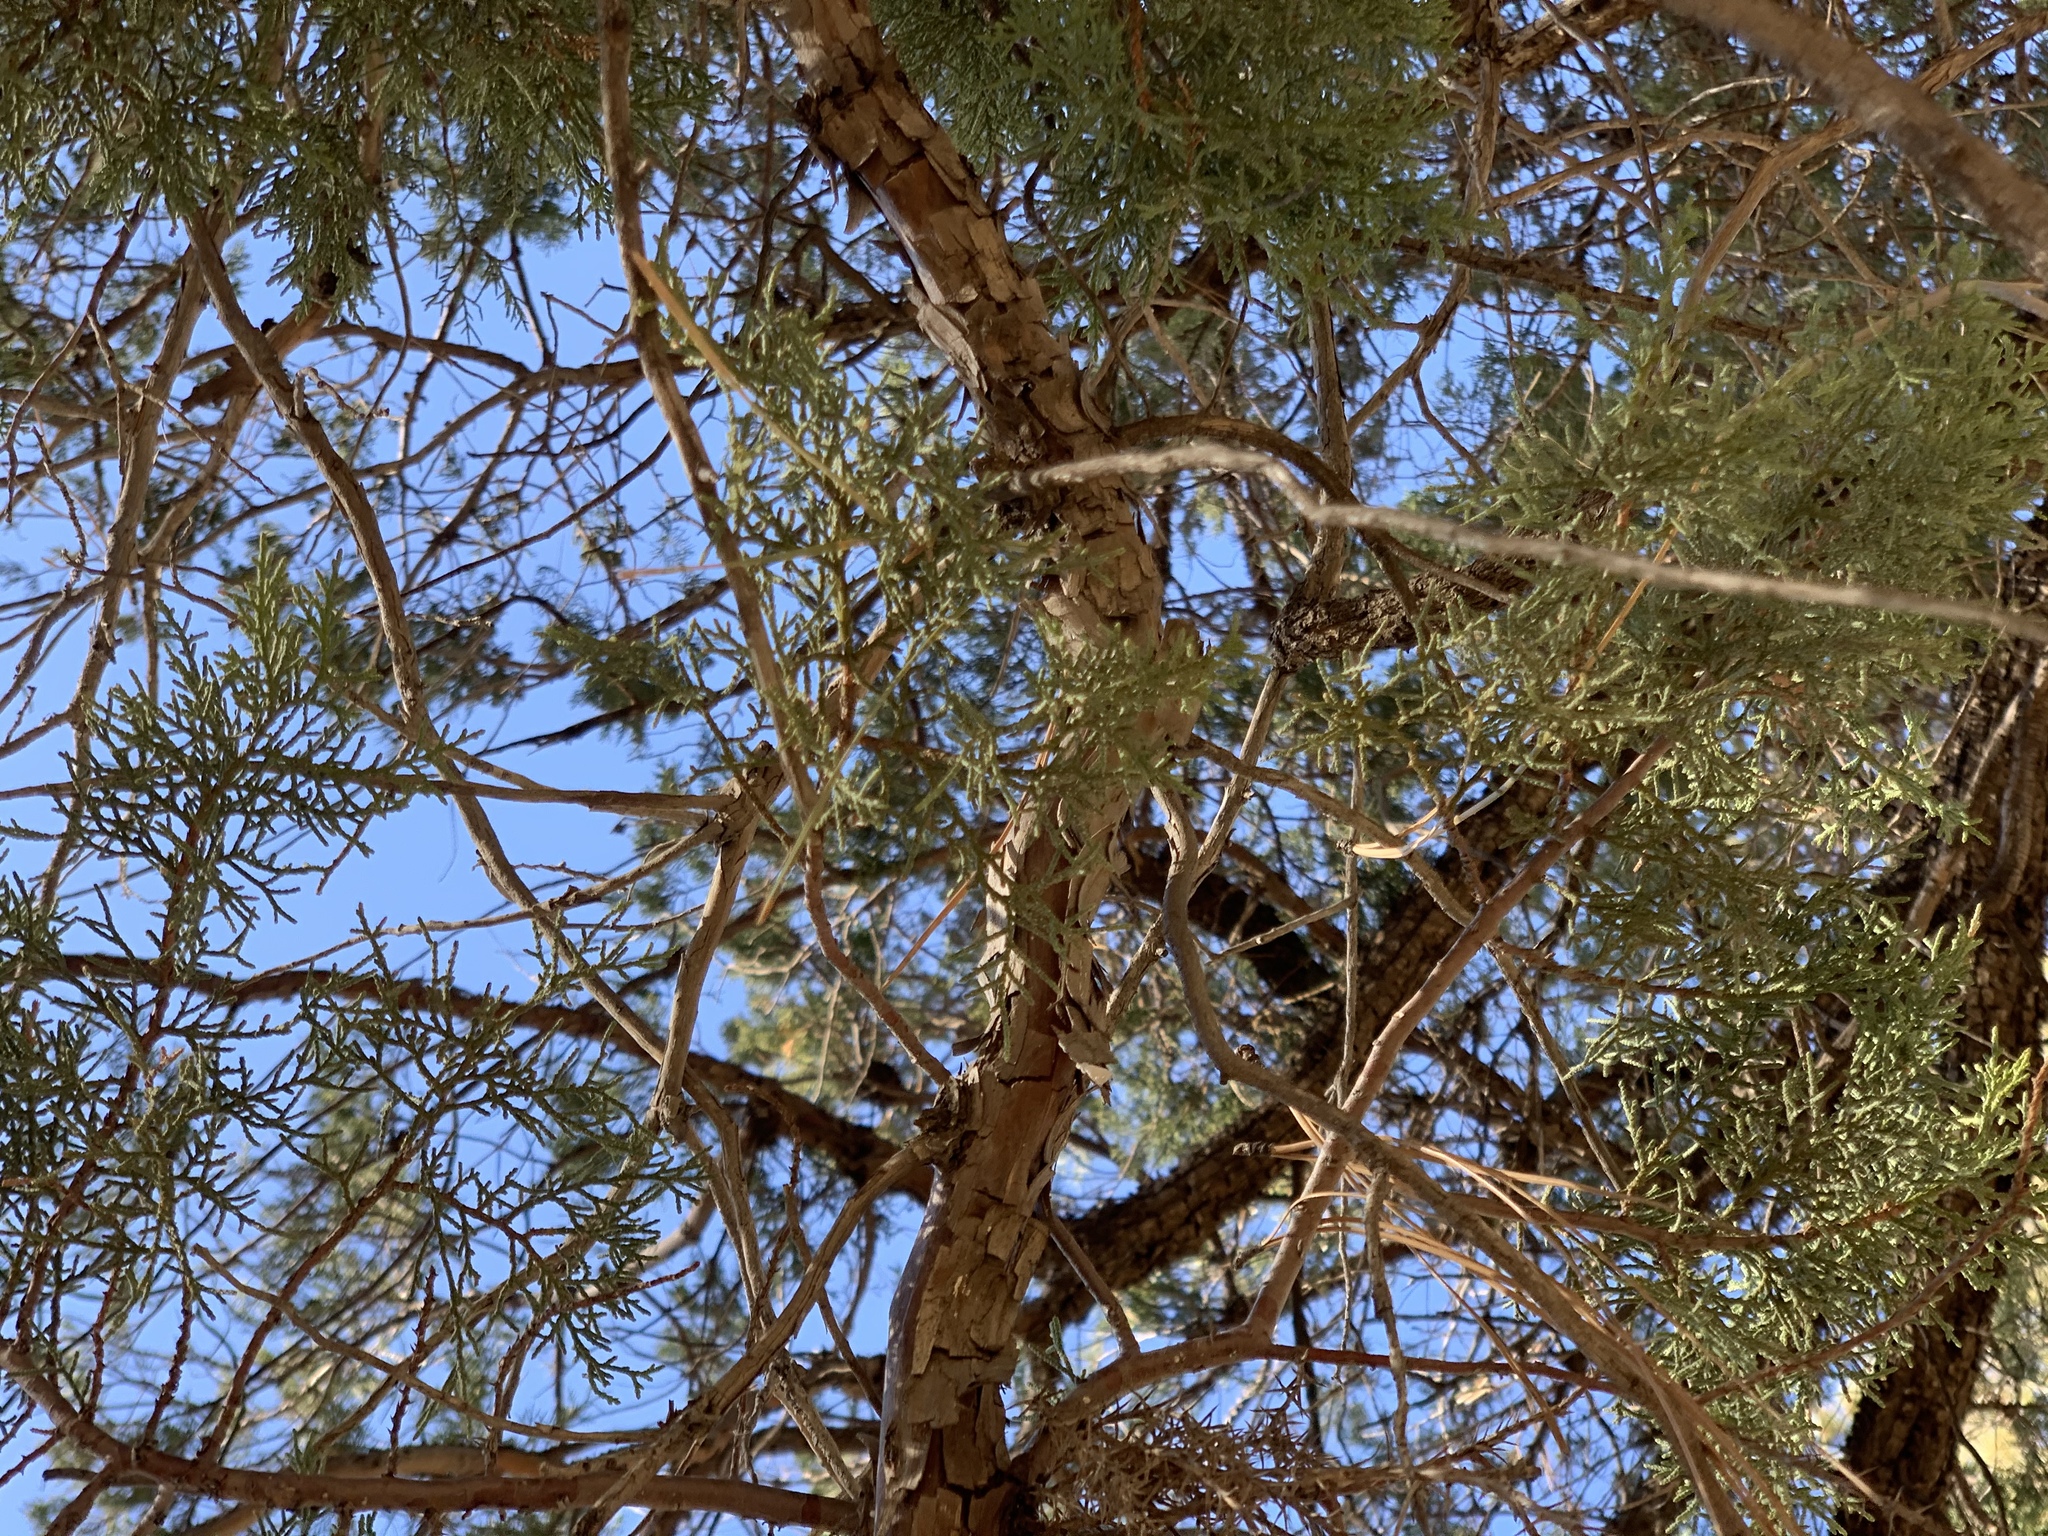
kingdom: Plantae
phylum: Tracheophyta
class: Pinopsida
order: Pinales
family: Cupressaceae
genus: Juniperus
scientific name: Juniperus deppeana
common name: Alligator juniper
